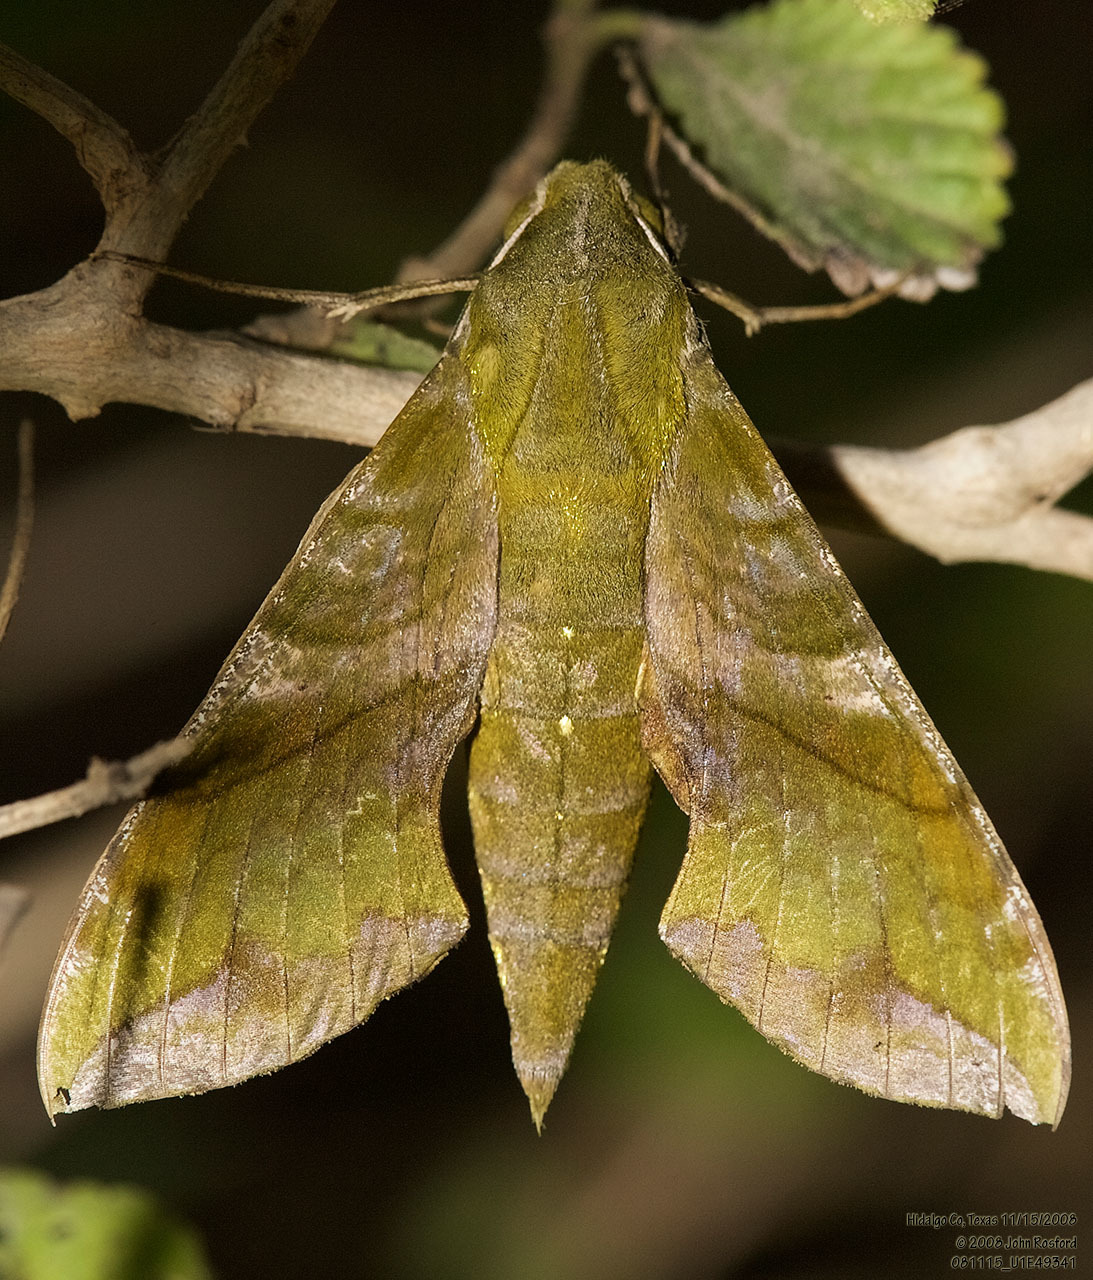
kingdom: Animalia
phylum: Arthropoda
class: Insecta
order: Lepidoptera
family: Sphingidae
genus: Xylophanes
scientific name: Xylophanes pluto
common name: Pluto sphinx
